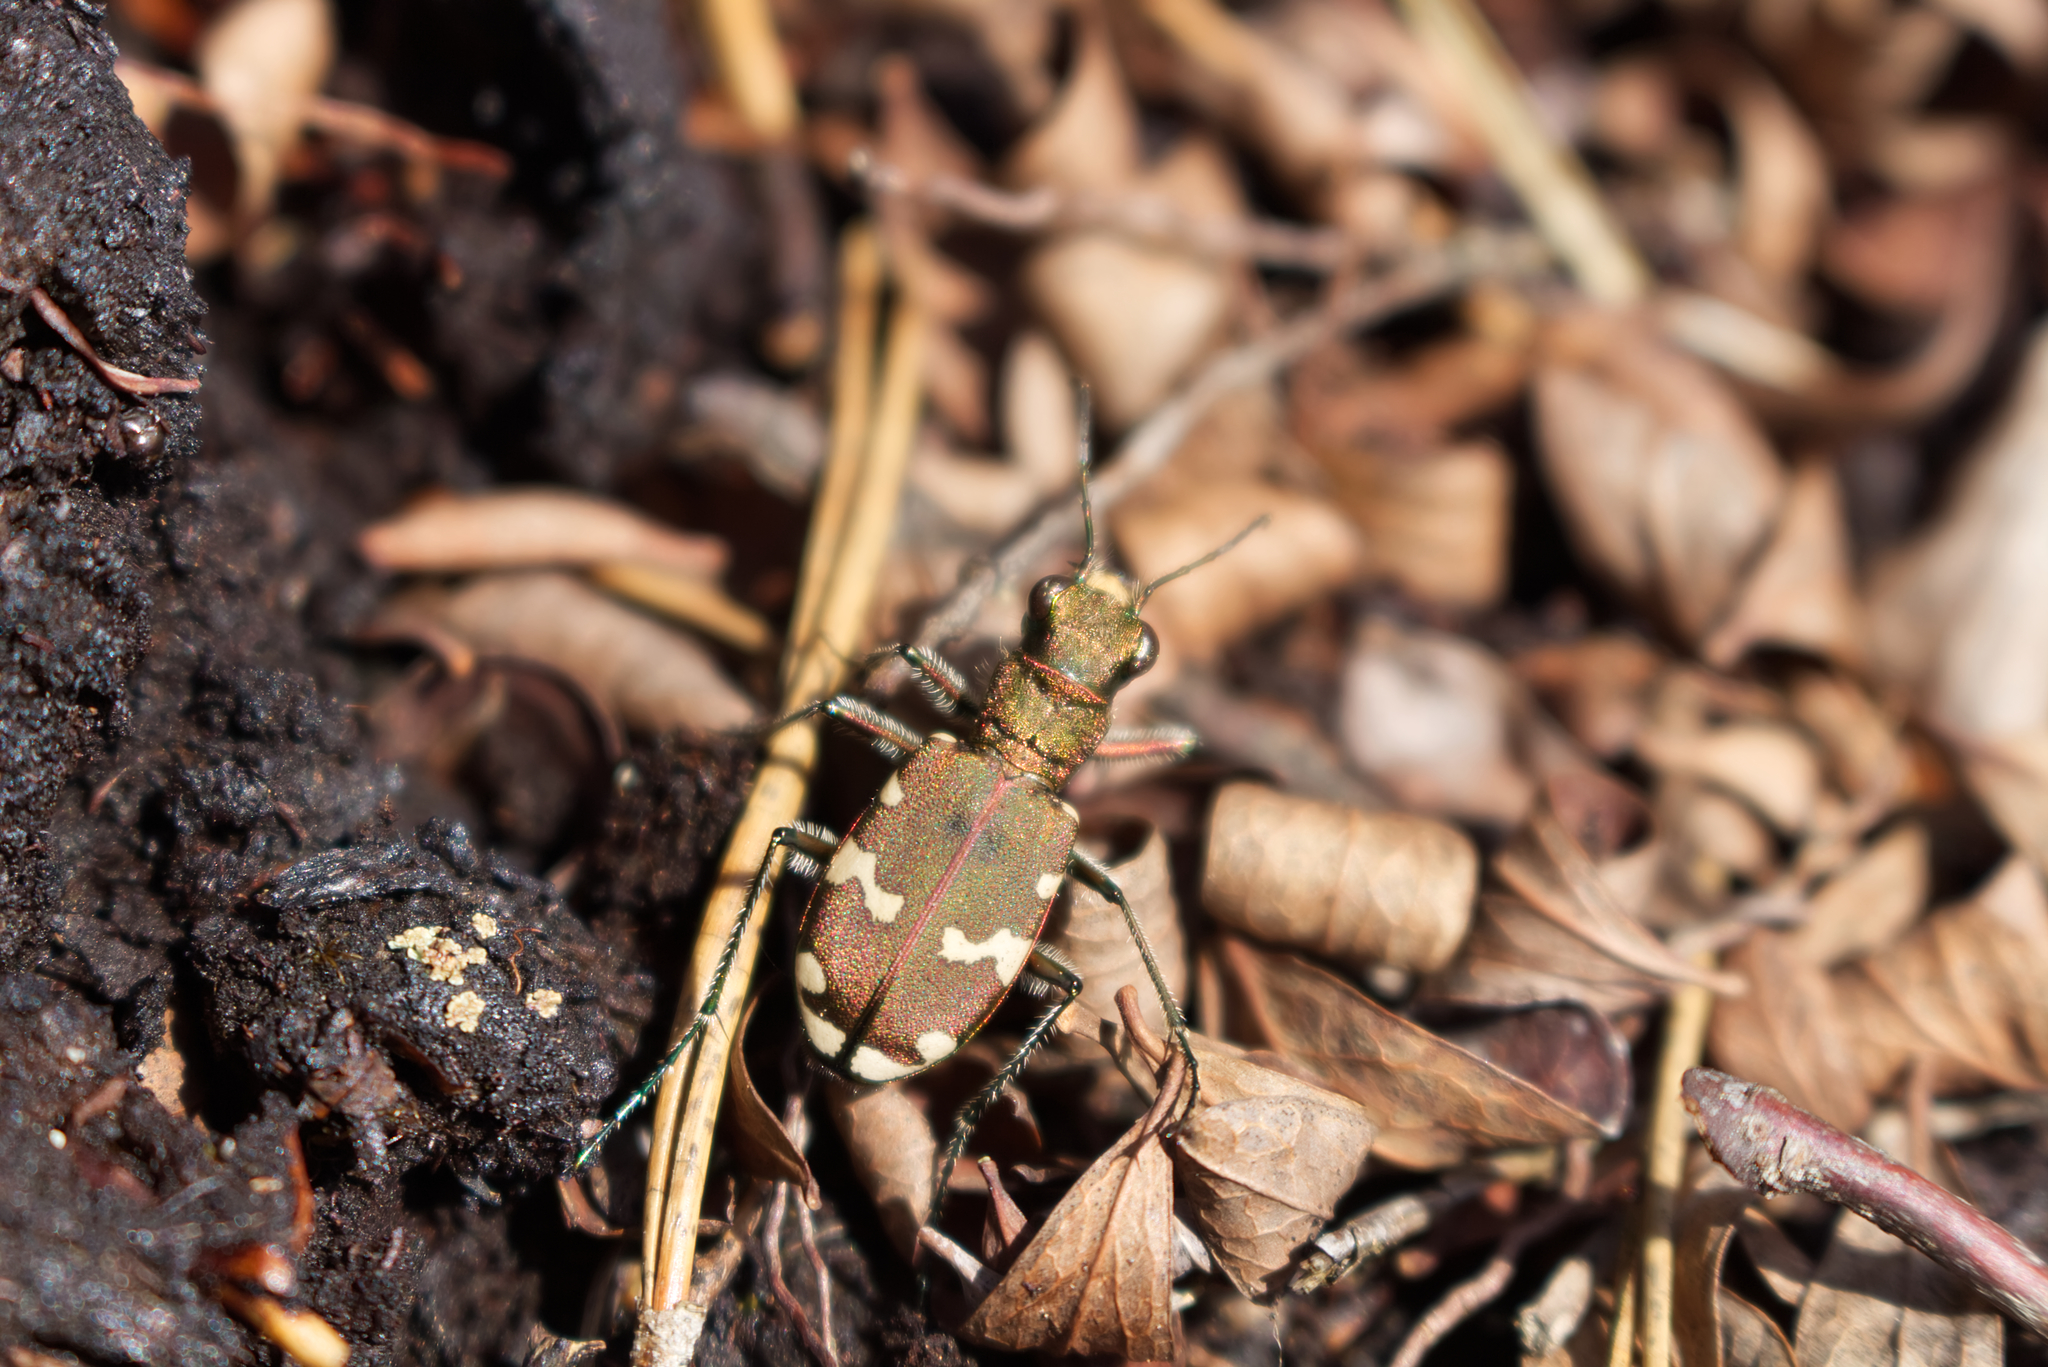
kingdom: Animalia
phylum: Arthropoda
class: Insecta
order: Coleoptera
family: Carabidae
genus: Cicindela
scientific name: Cicindela sylvicola
